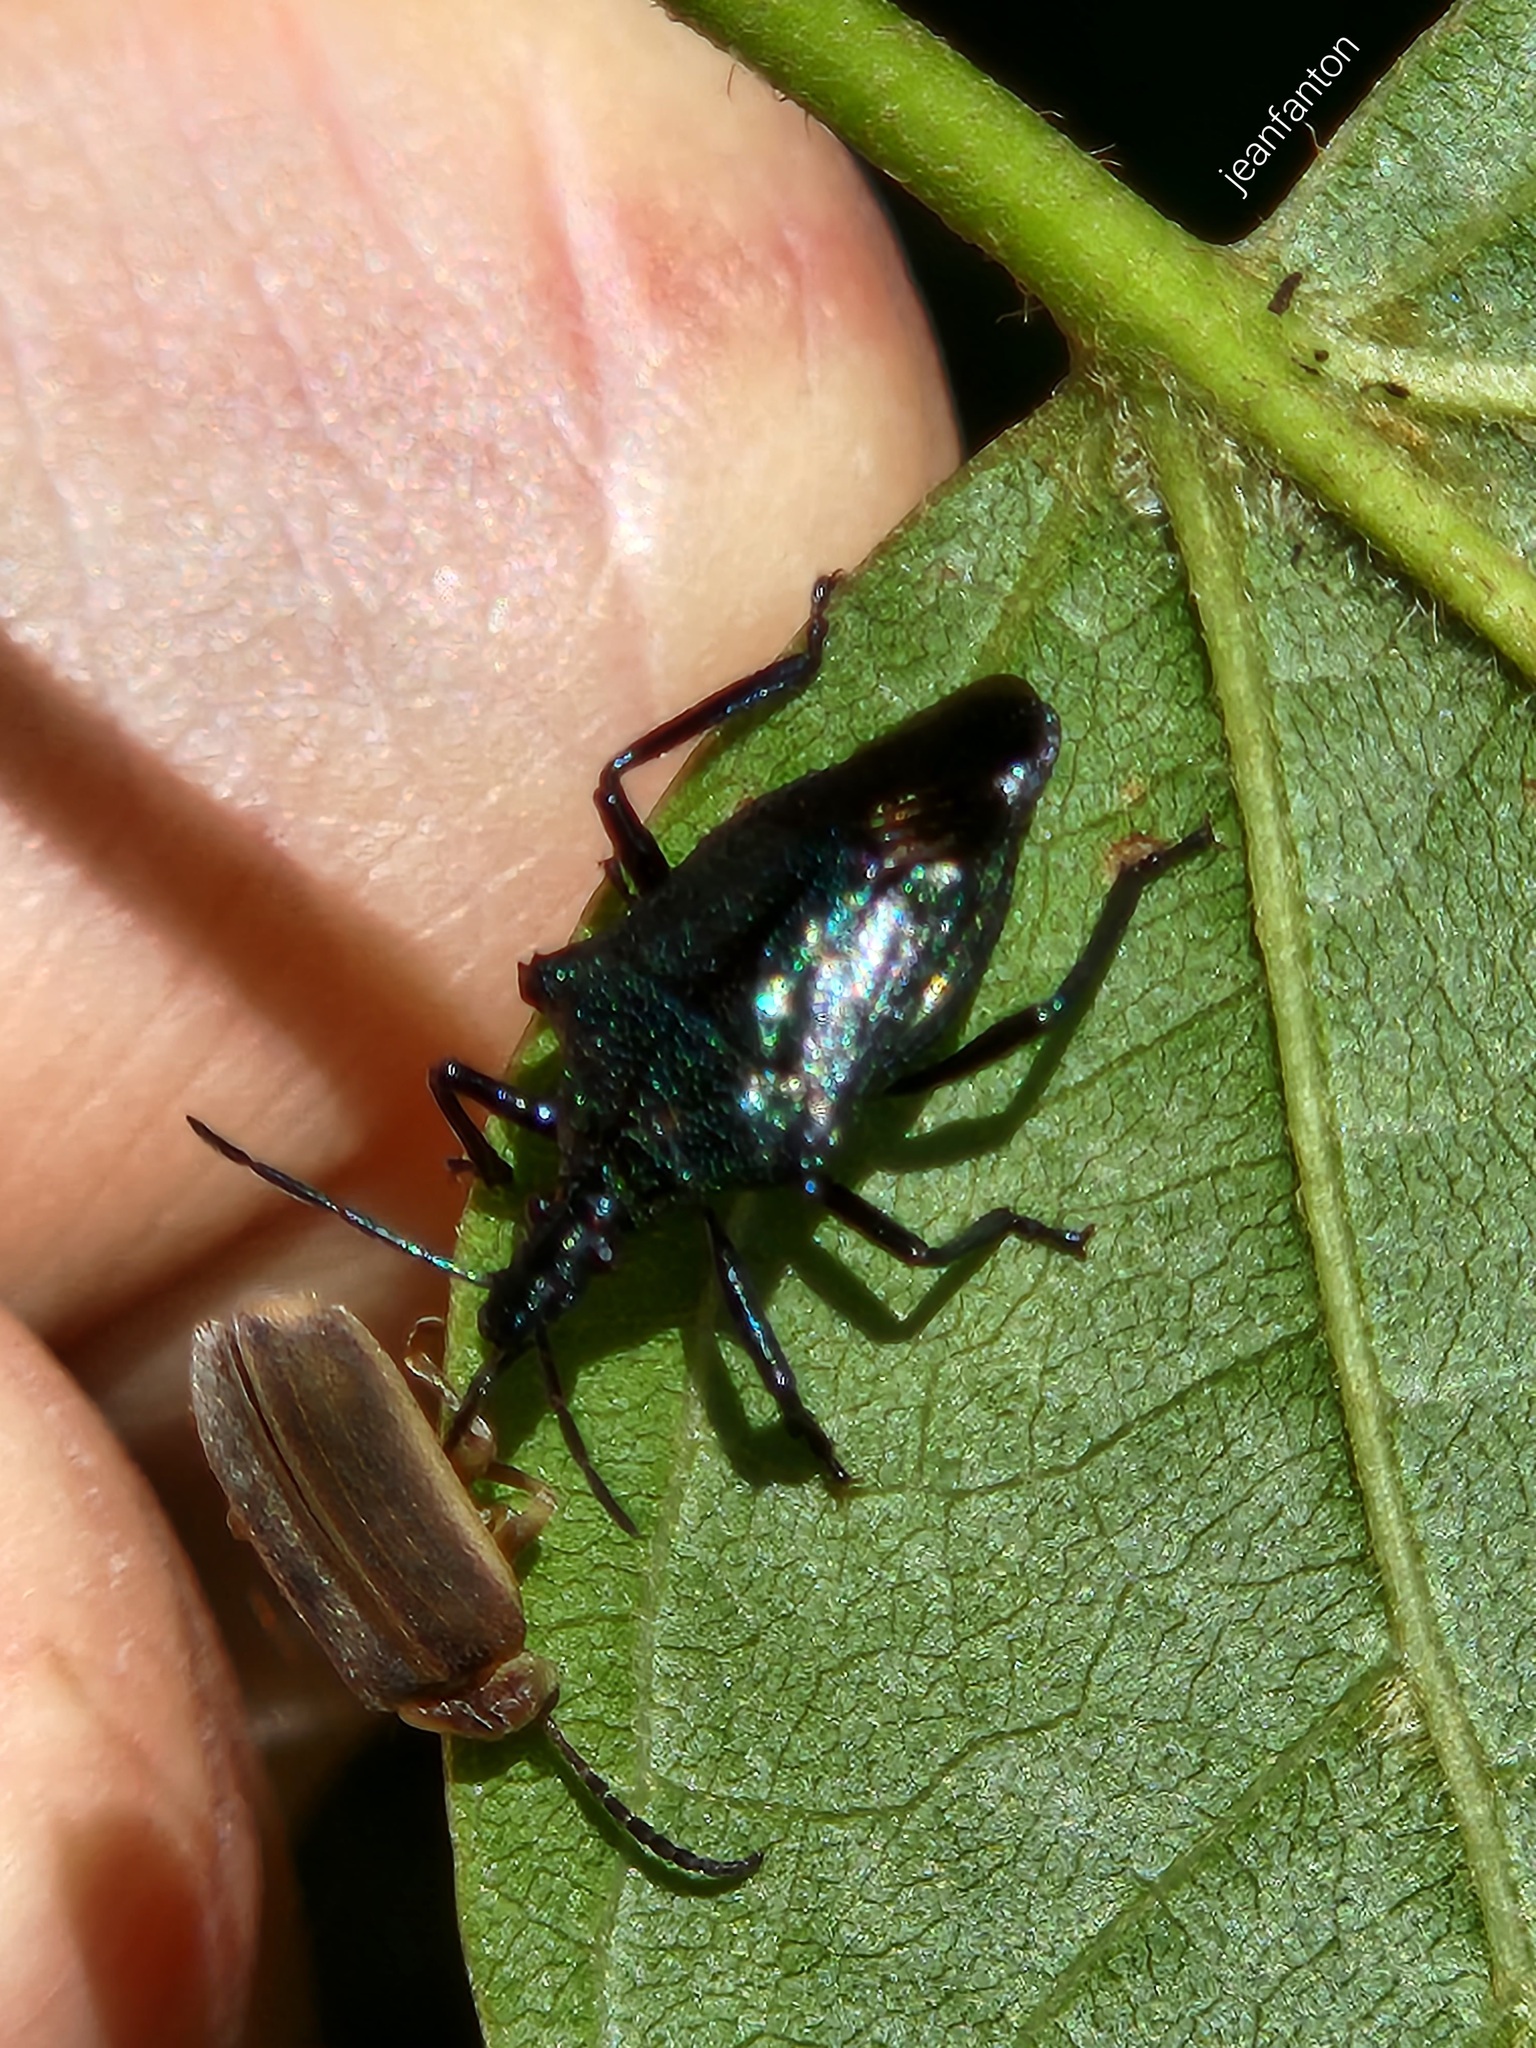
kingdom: Animalia
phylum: Arthropoda
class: Insecta
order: Hemiptera
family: Pentatomidae
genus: Heteroscelis
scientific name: Heteroscelis servillii
